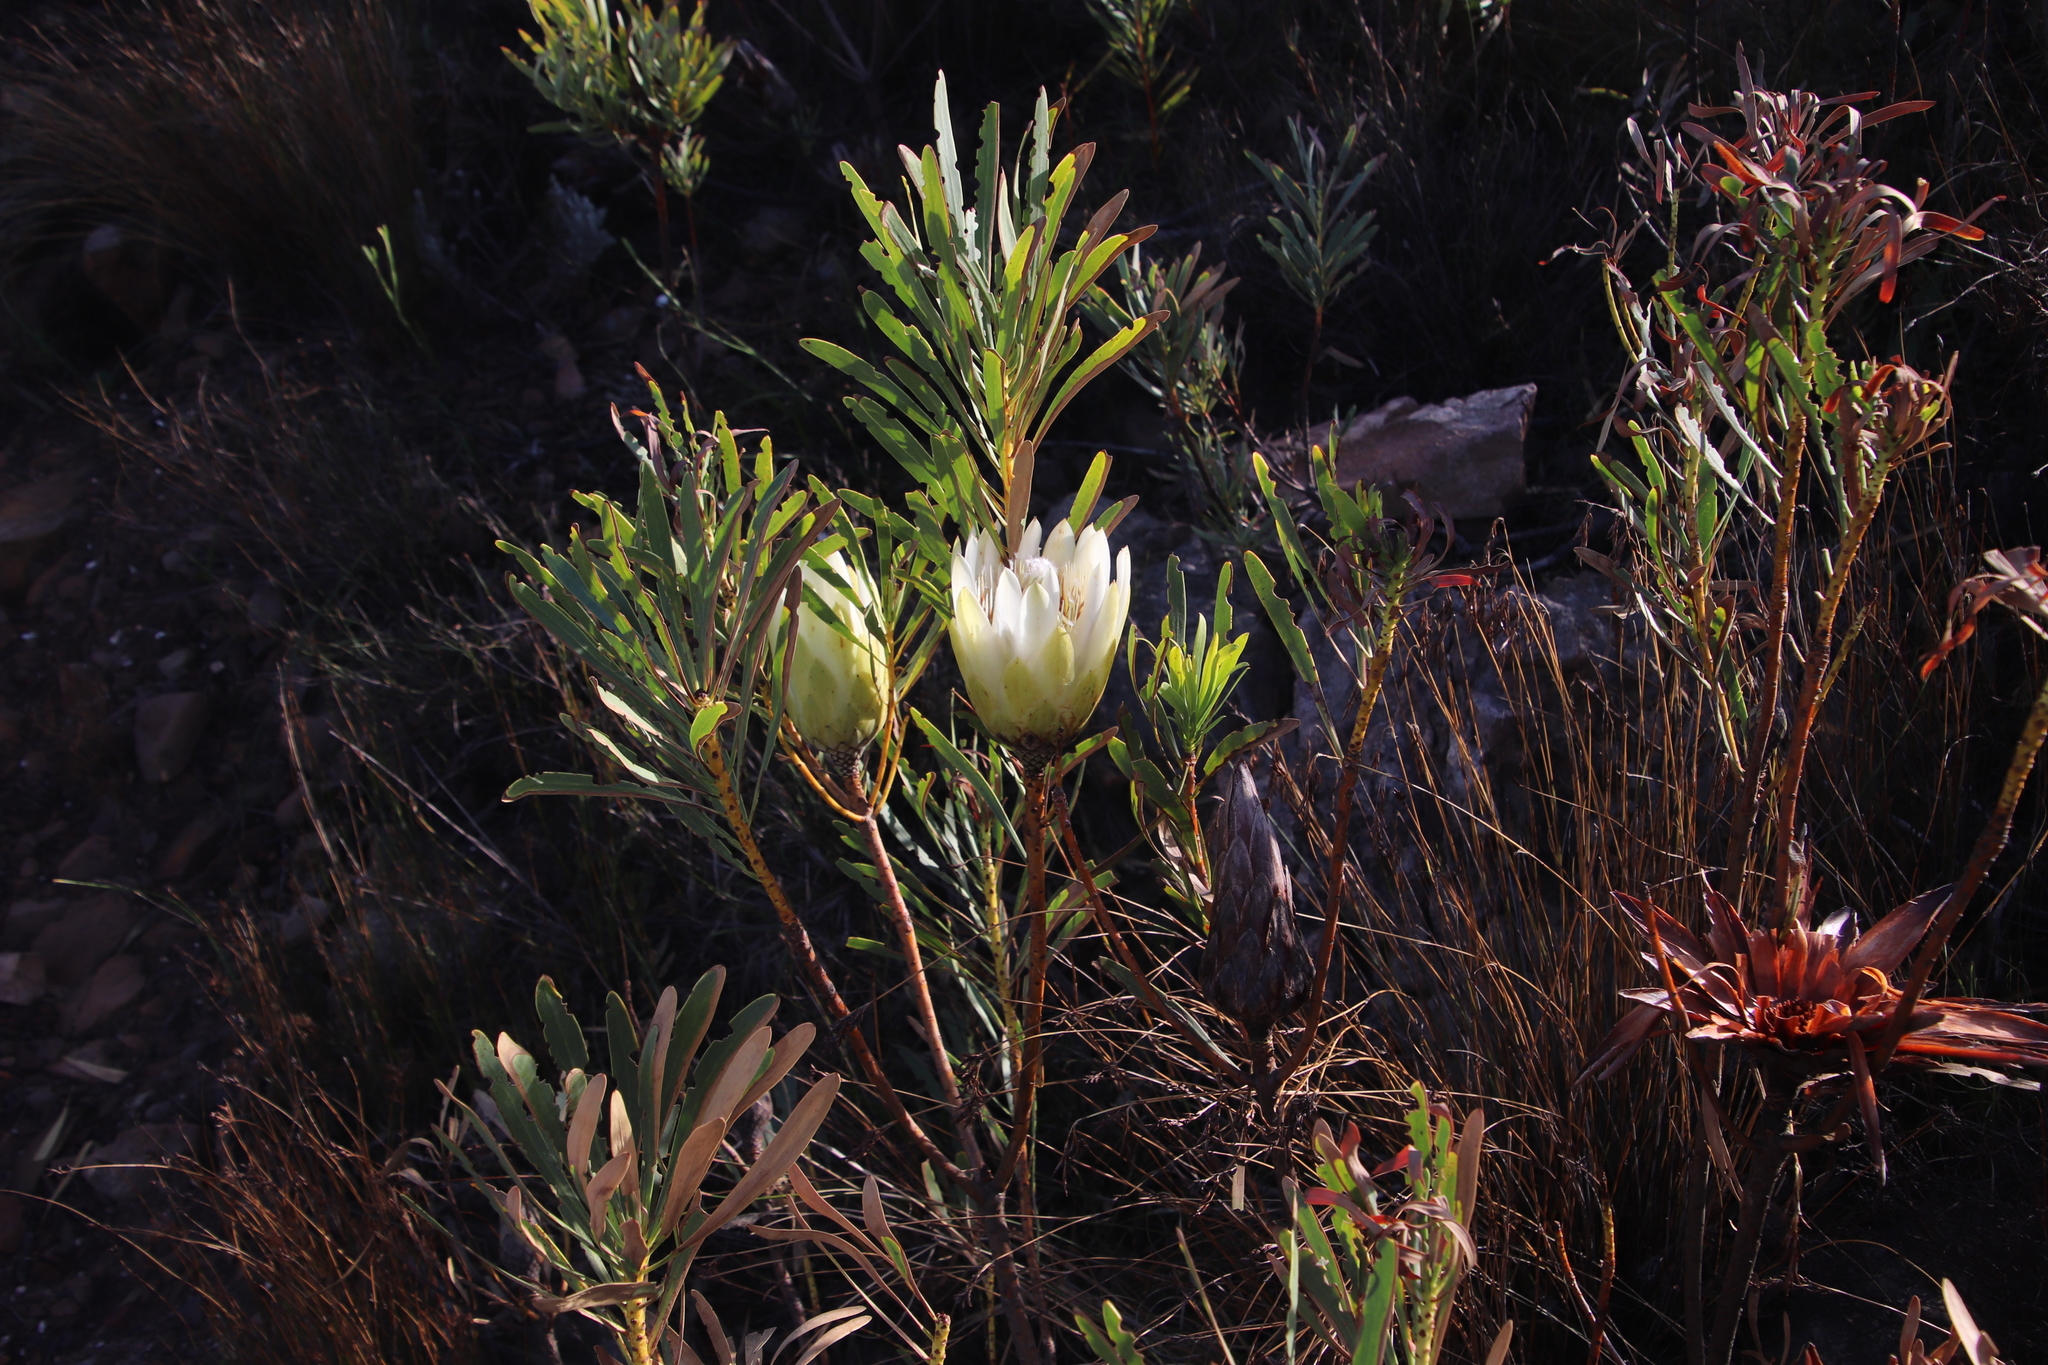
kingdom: Plantae
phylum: Tracheophyta
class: Magnoliopsida
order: Proteales
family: Proteaceae
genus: Protea
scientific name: Protea repens
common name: Sugarbush
